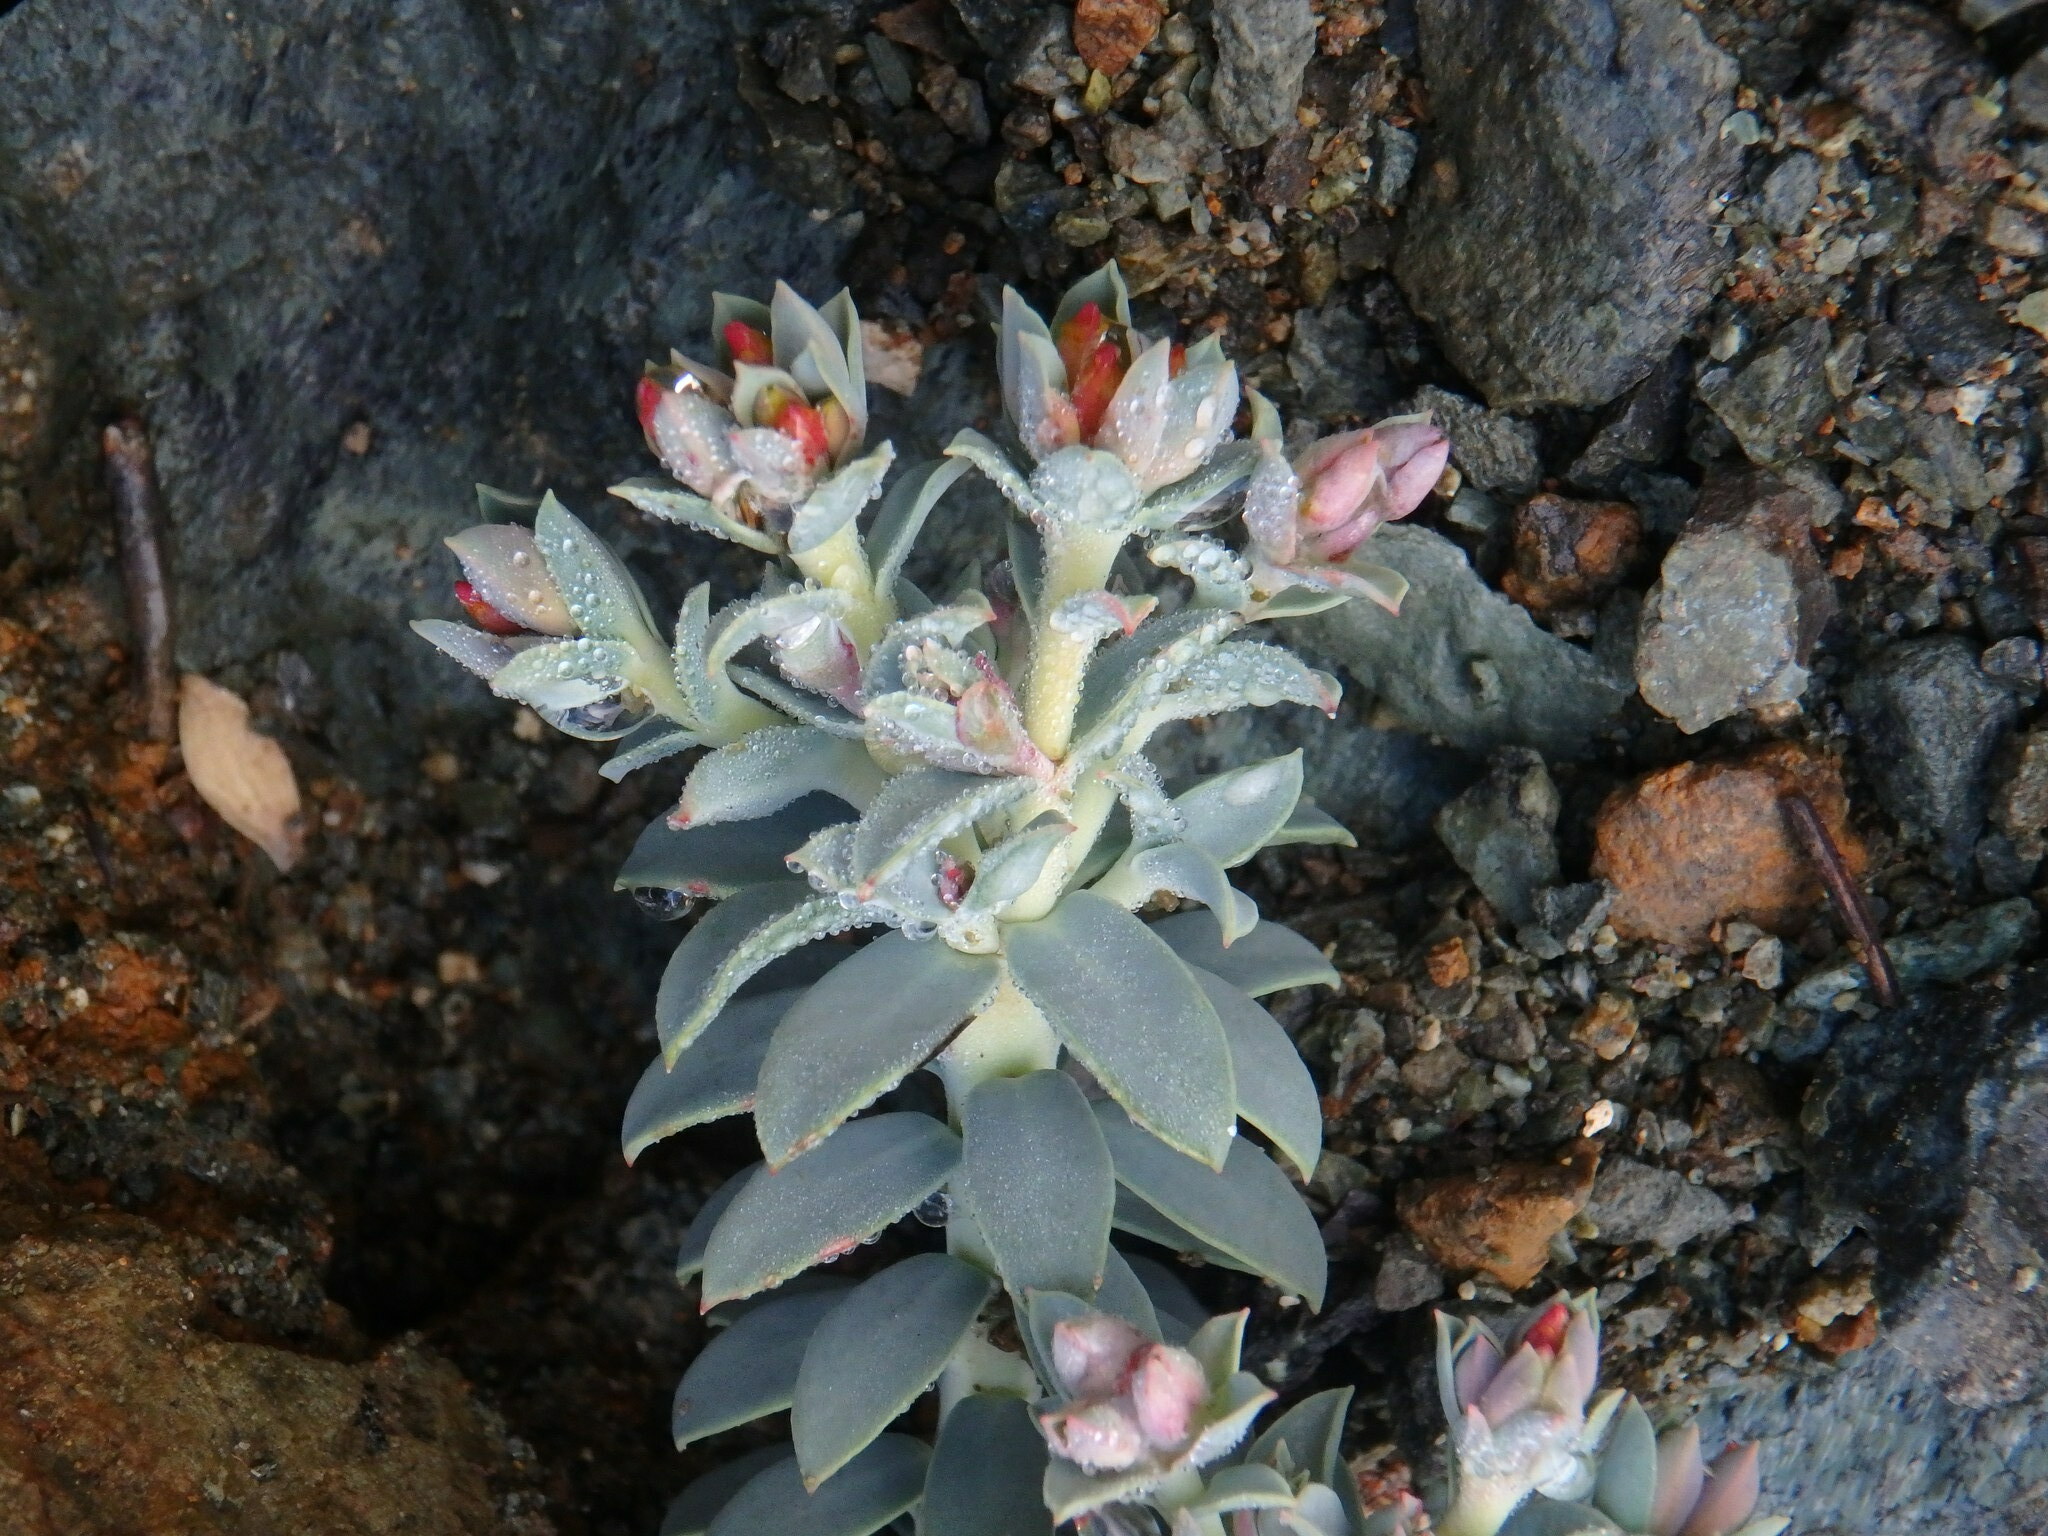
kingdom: Plantae
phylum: Tracheophyta
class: Magnoliopsida
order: Malpighiales
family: Euphorbiaceae
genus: Euphorbia
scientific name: Euphorbia veneris
